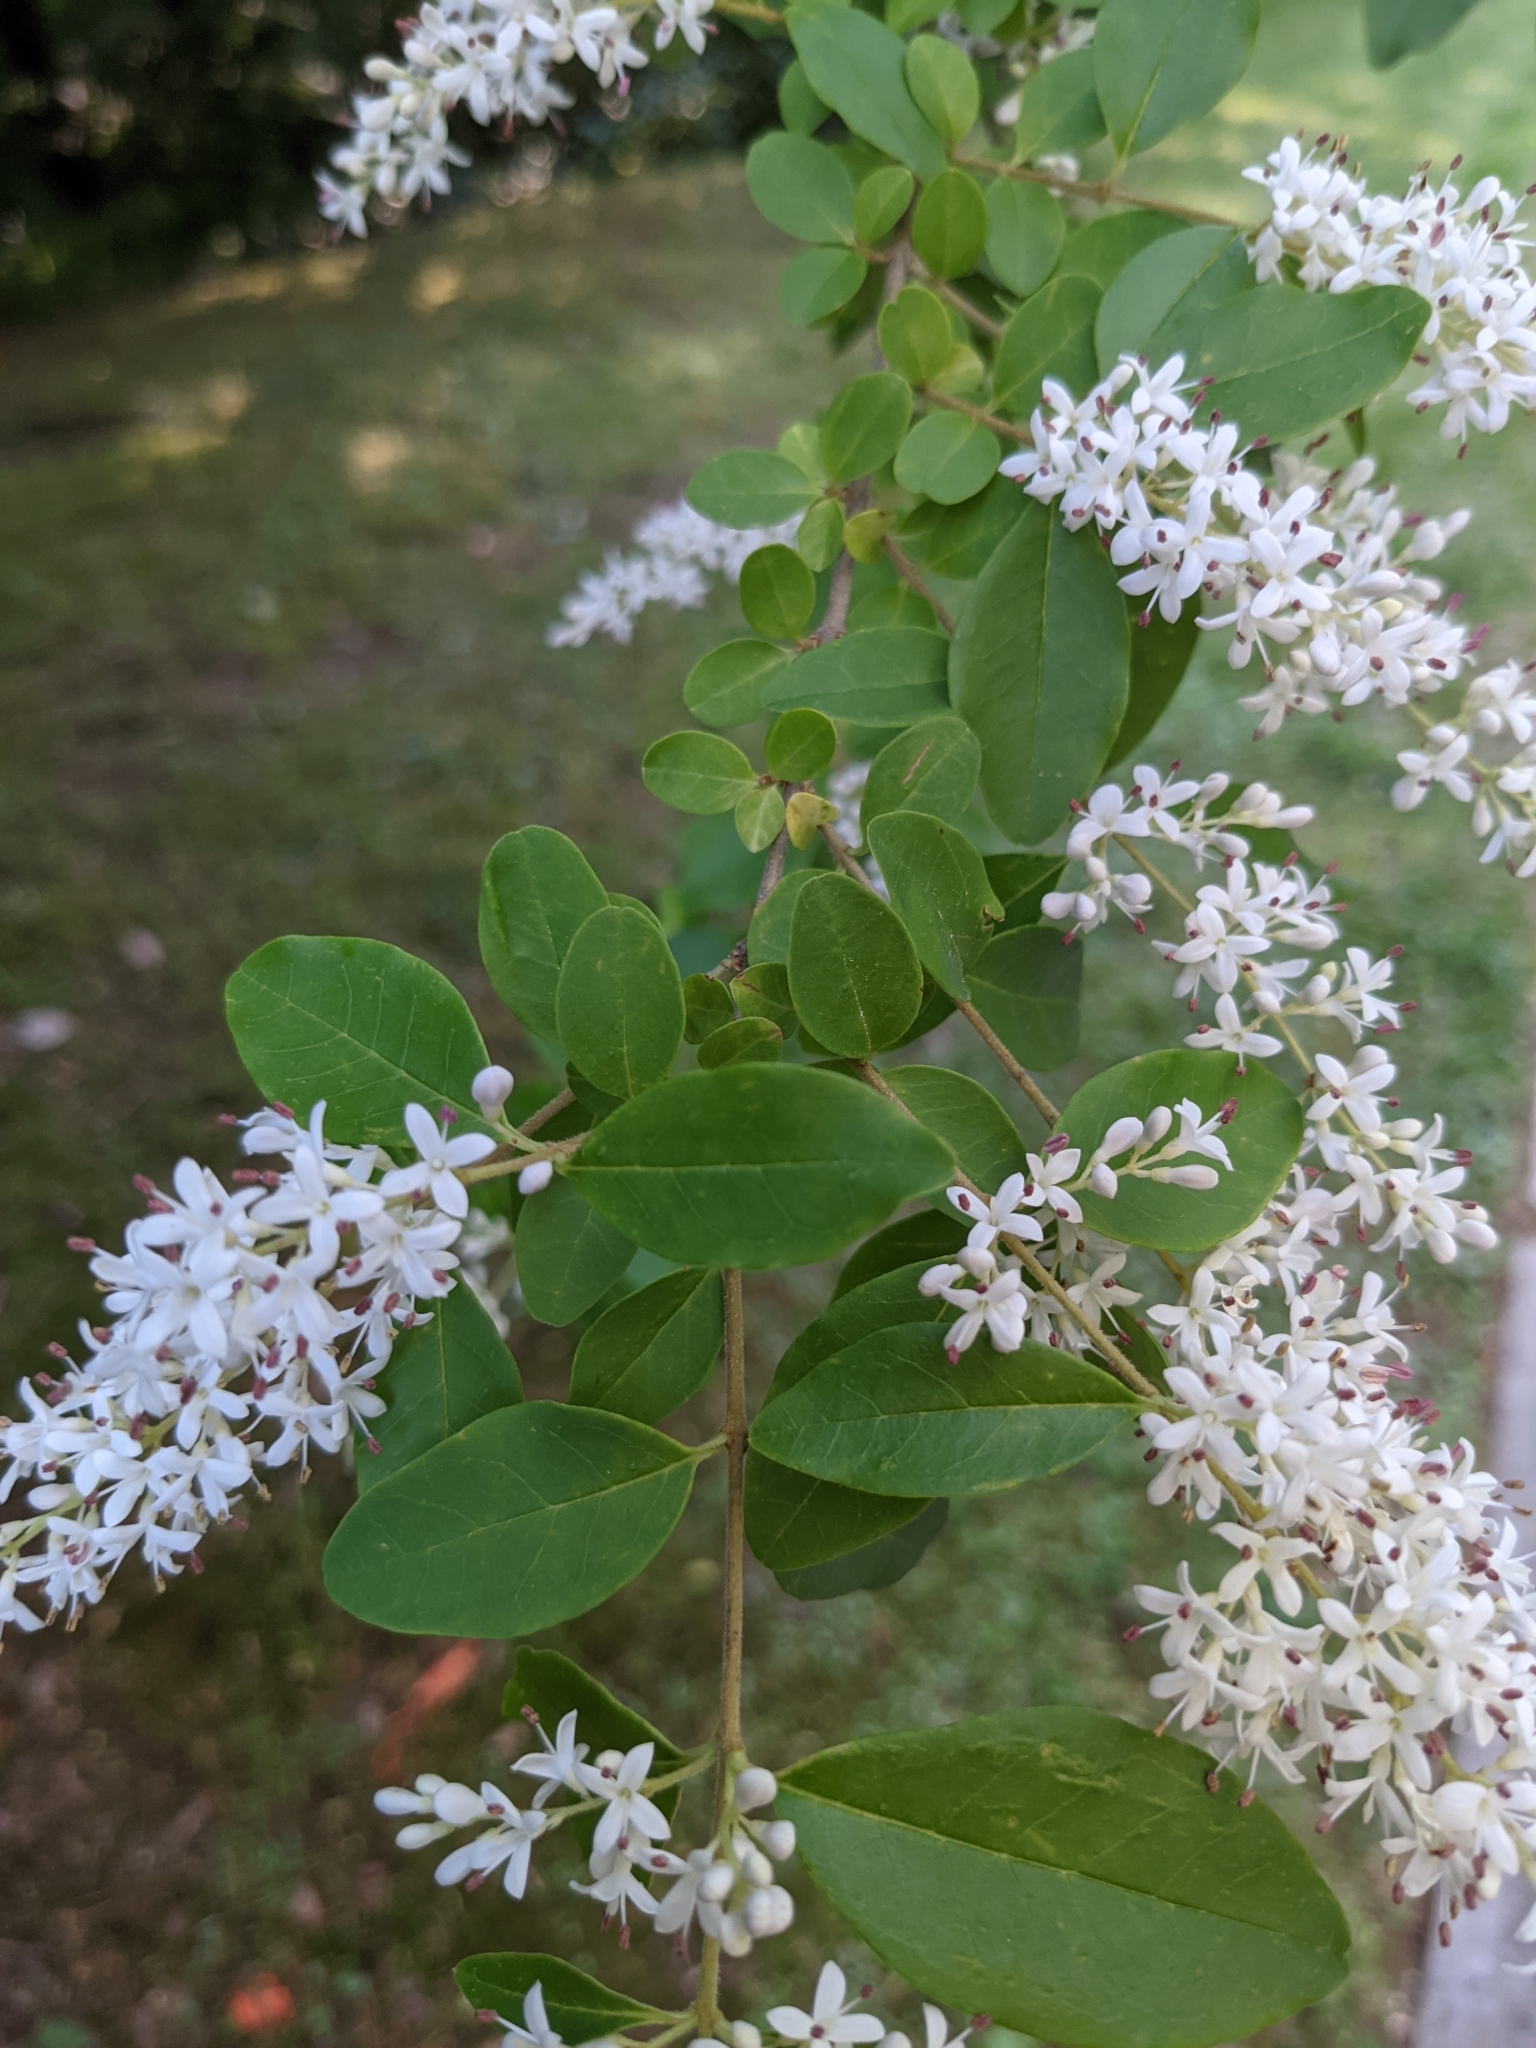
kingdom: Plantae
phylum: Tracheophyta
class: Magnoliopsida
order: Lamiales
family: Oleaceae
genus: Ligustrum
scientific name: Ligustrum sinense
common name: Chinese privet
